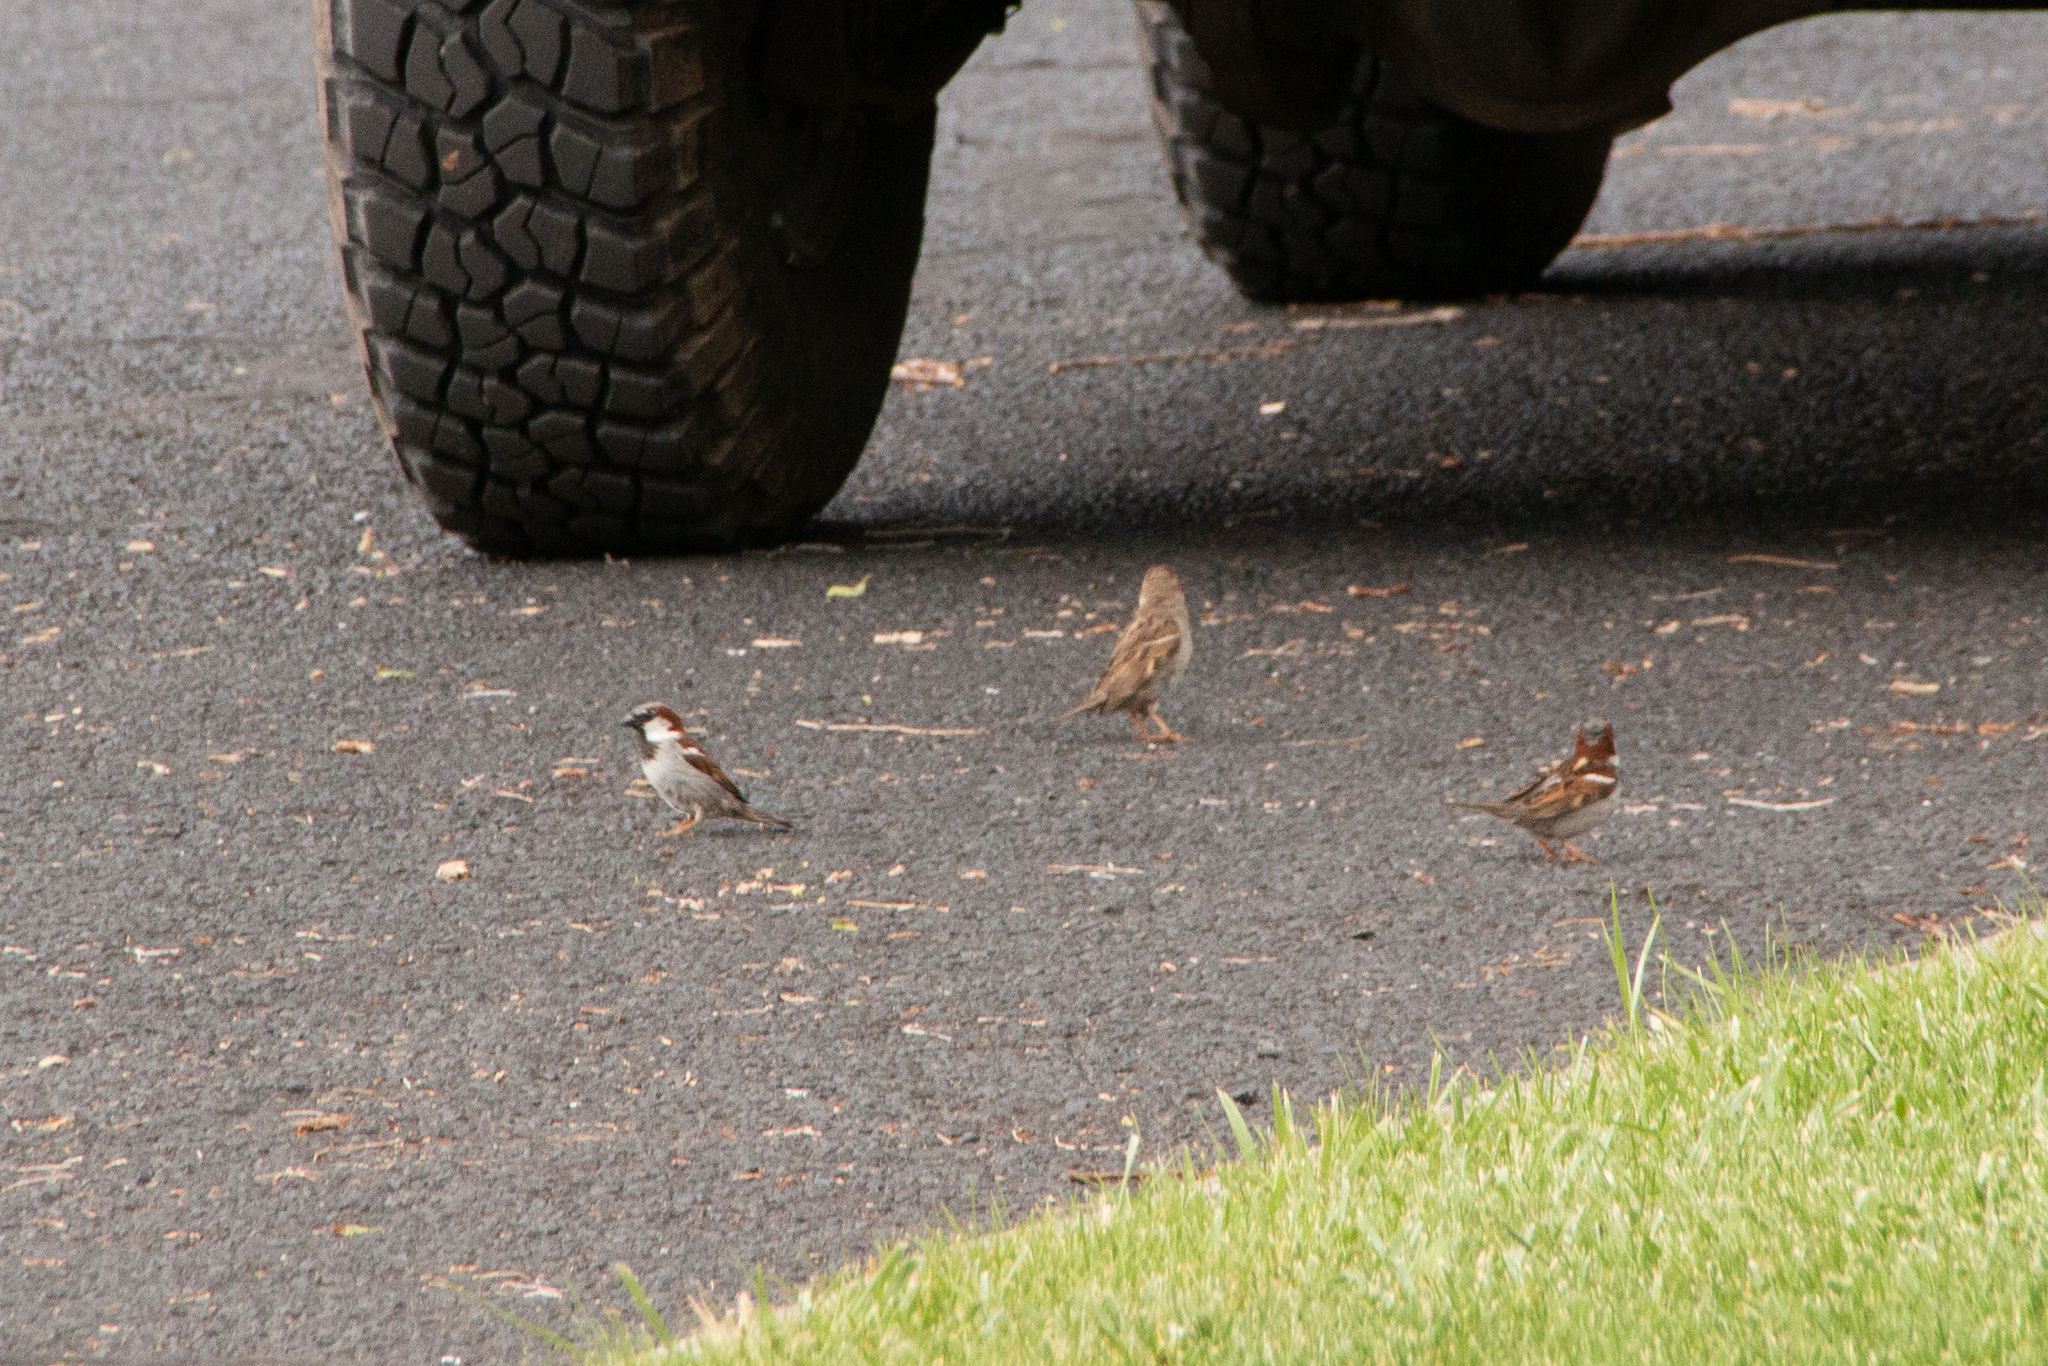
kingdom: Animalia
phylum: Chordata
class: Aves
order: Passeriformes
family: Passeridae
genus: Passer
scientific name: Passer domesticus
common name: House sparrow
